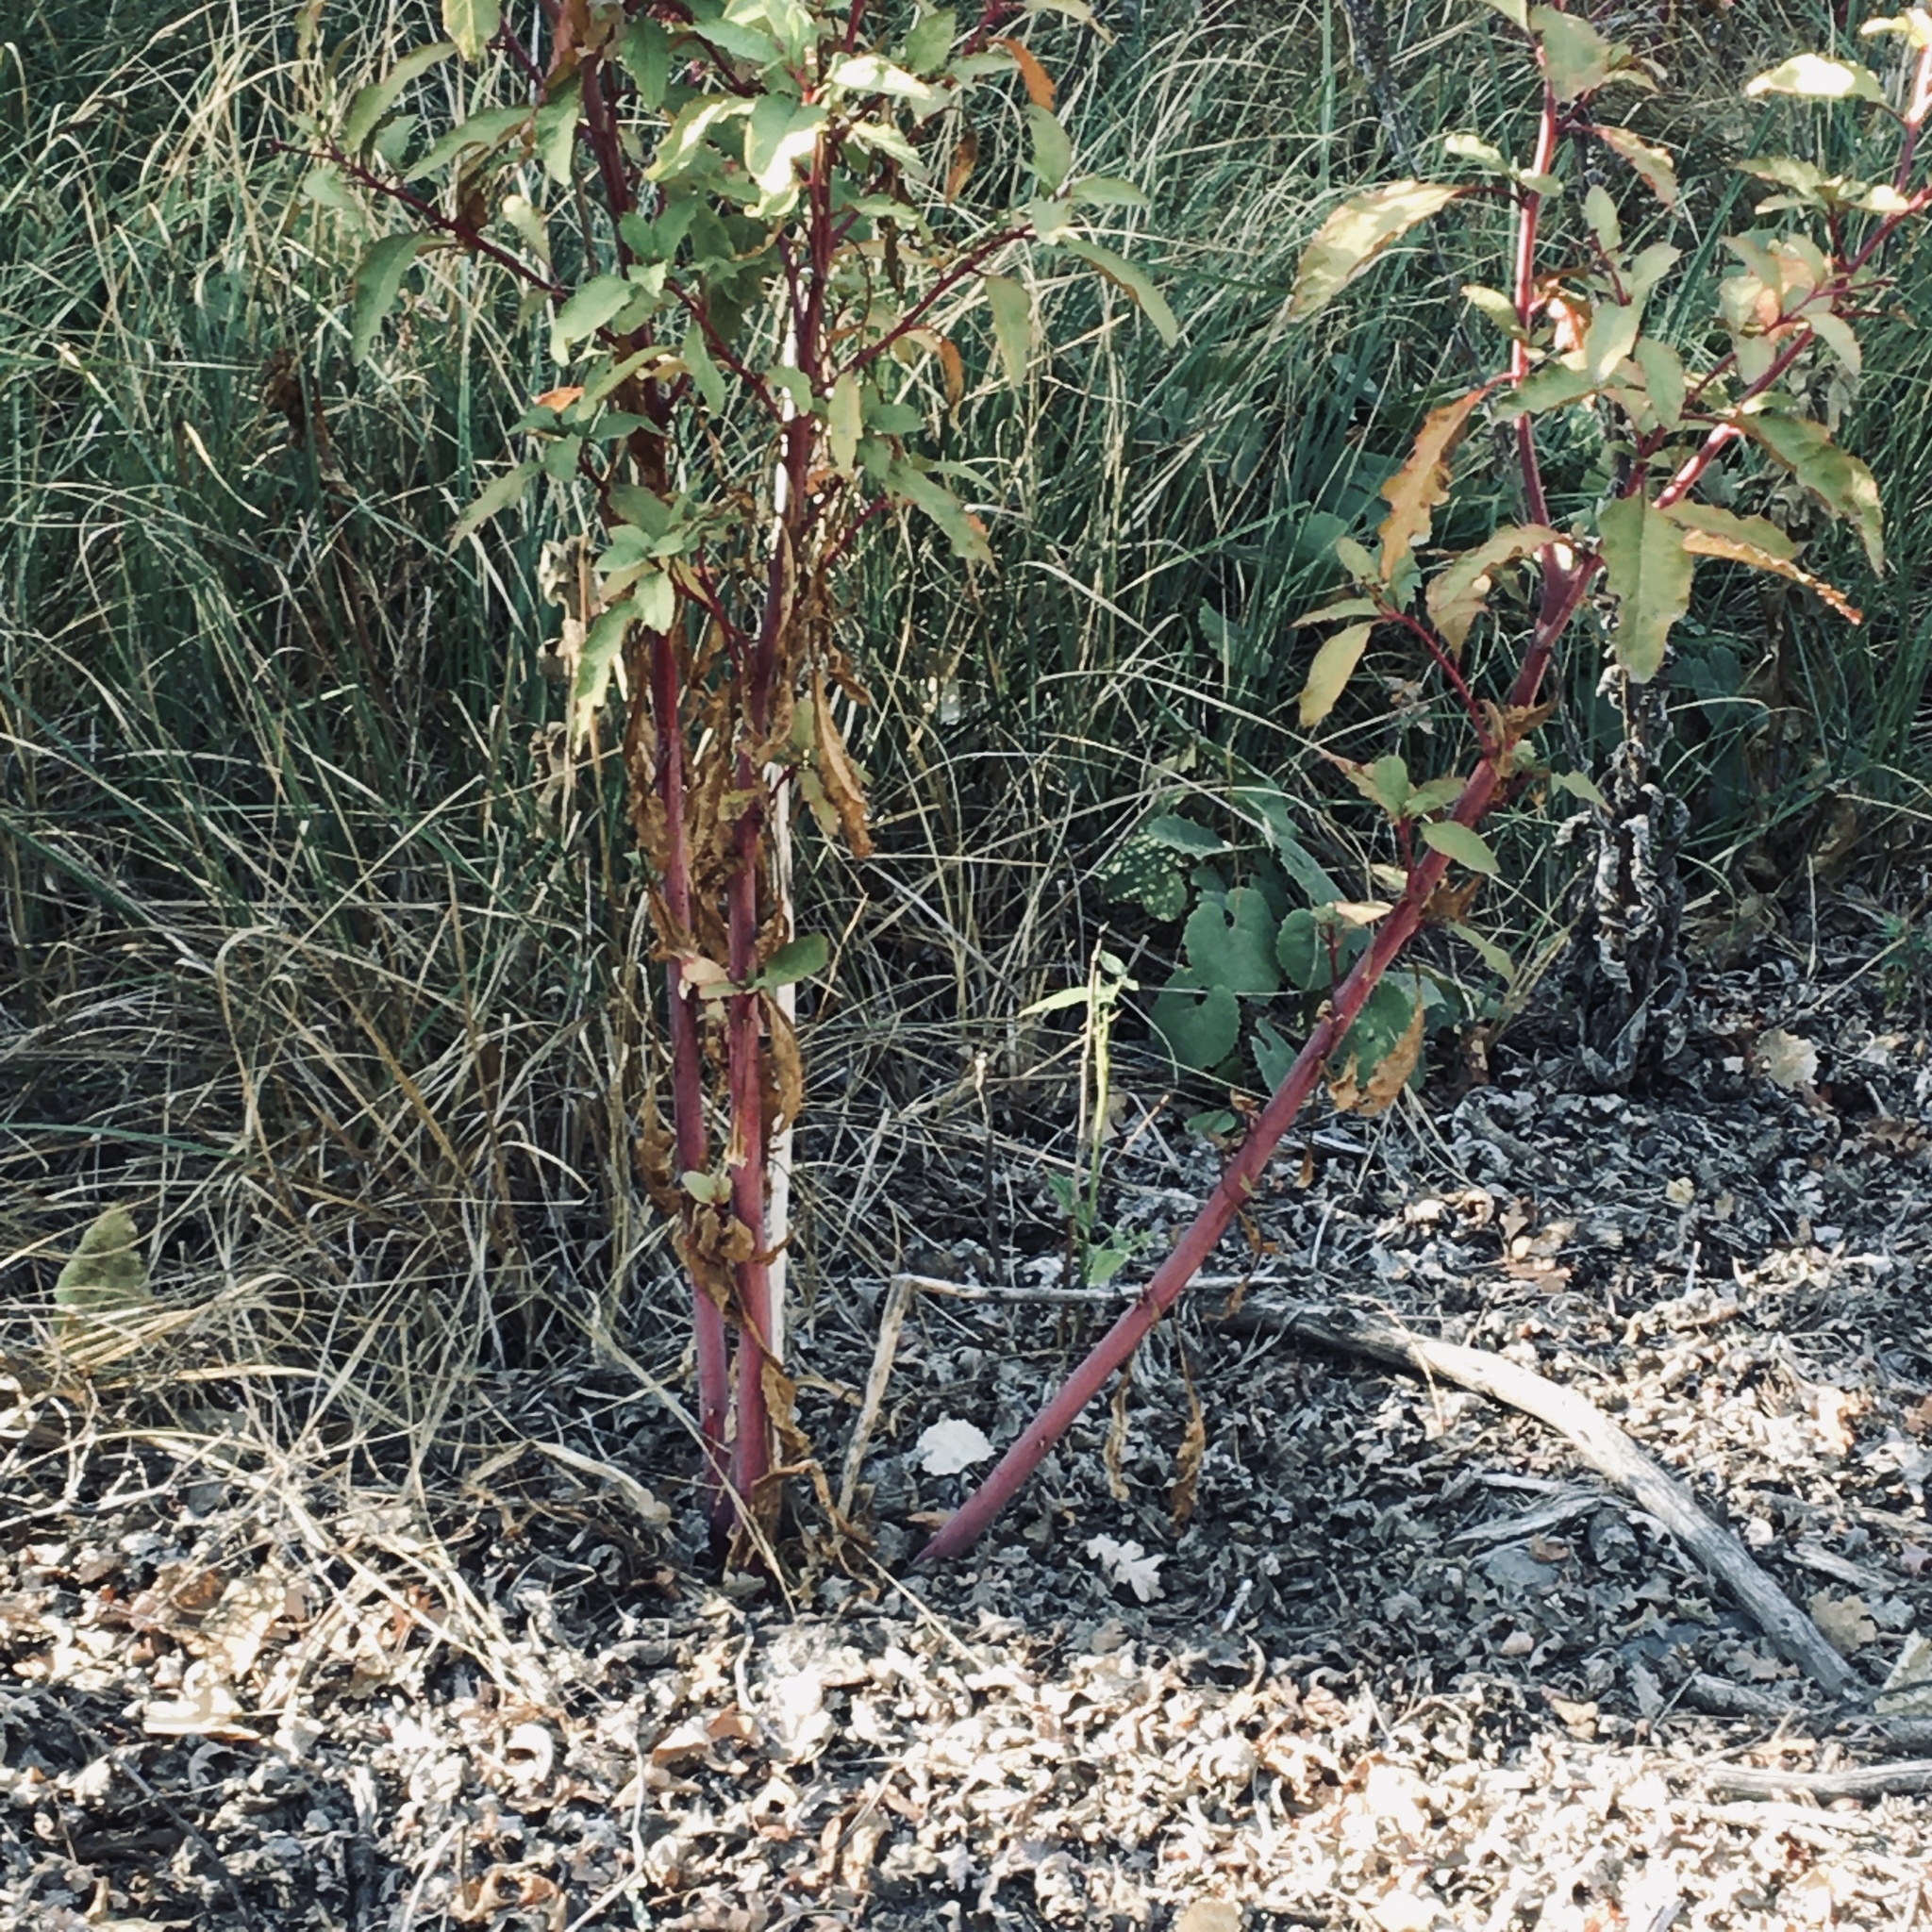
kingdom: Plantae
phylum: Tracheophyta
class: Magnoliopsida
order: Caryophyllales
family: Phytolaccaceae
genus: Phytolacca
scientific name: Phytolacca americana
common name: American pokeweed
